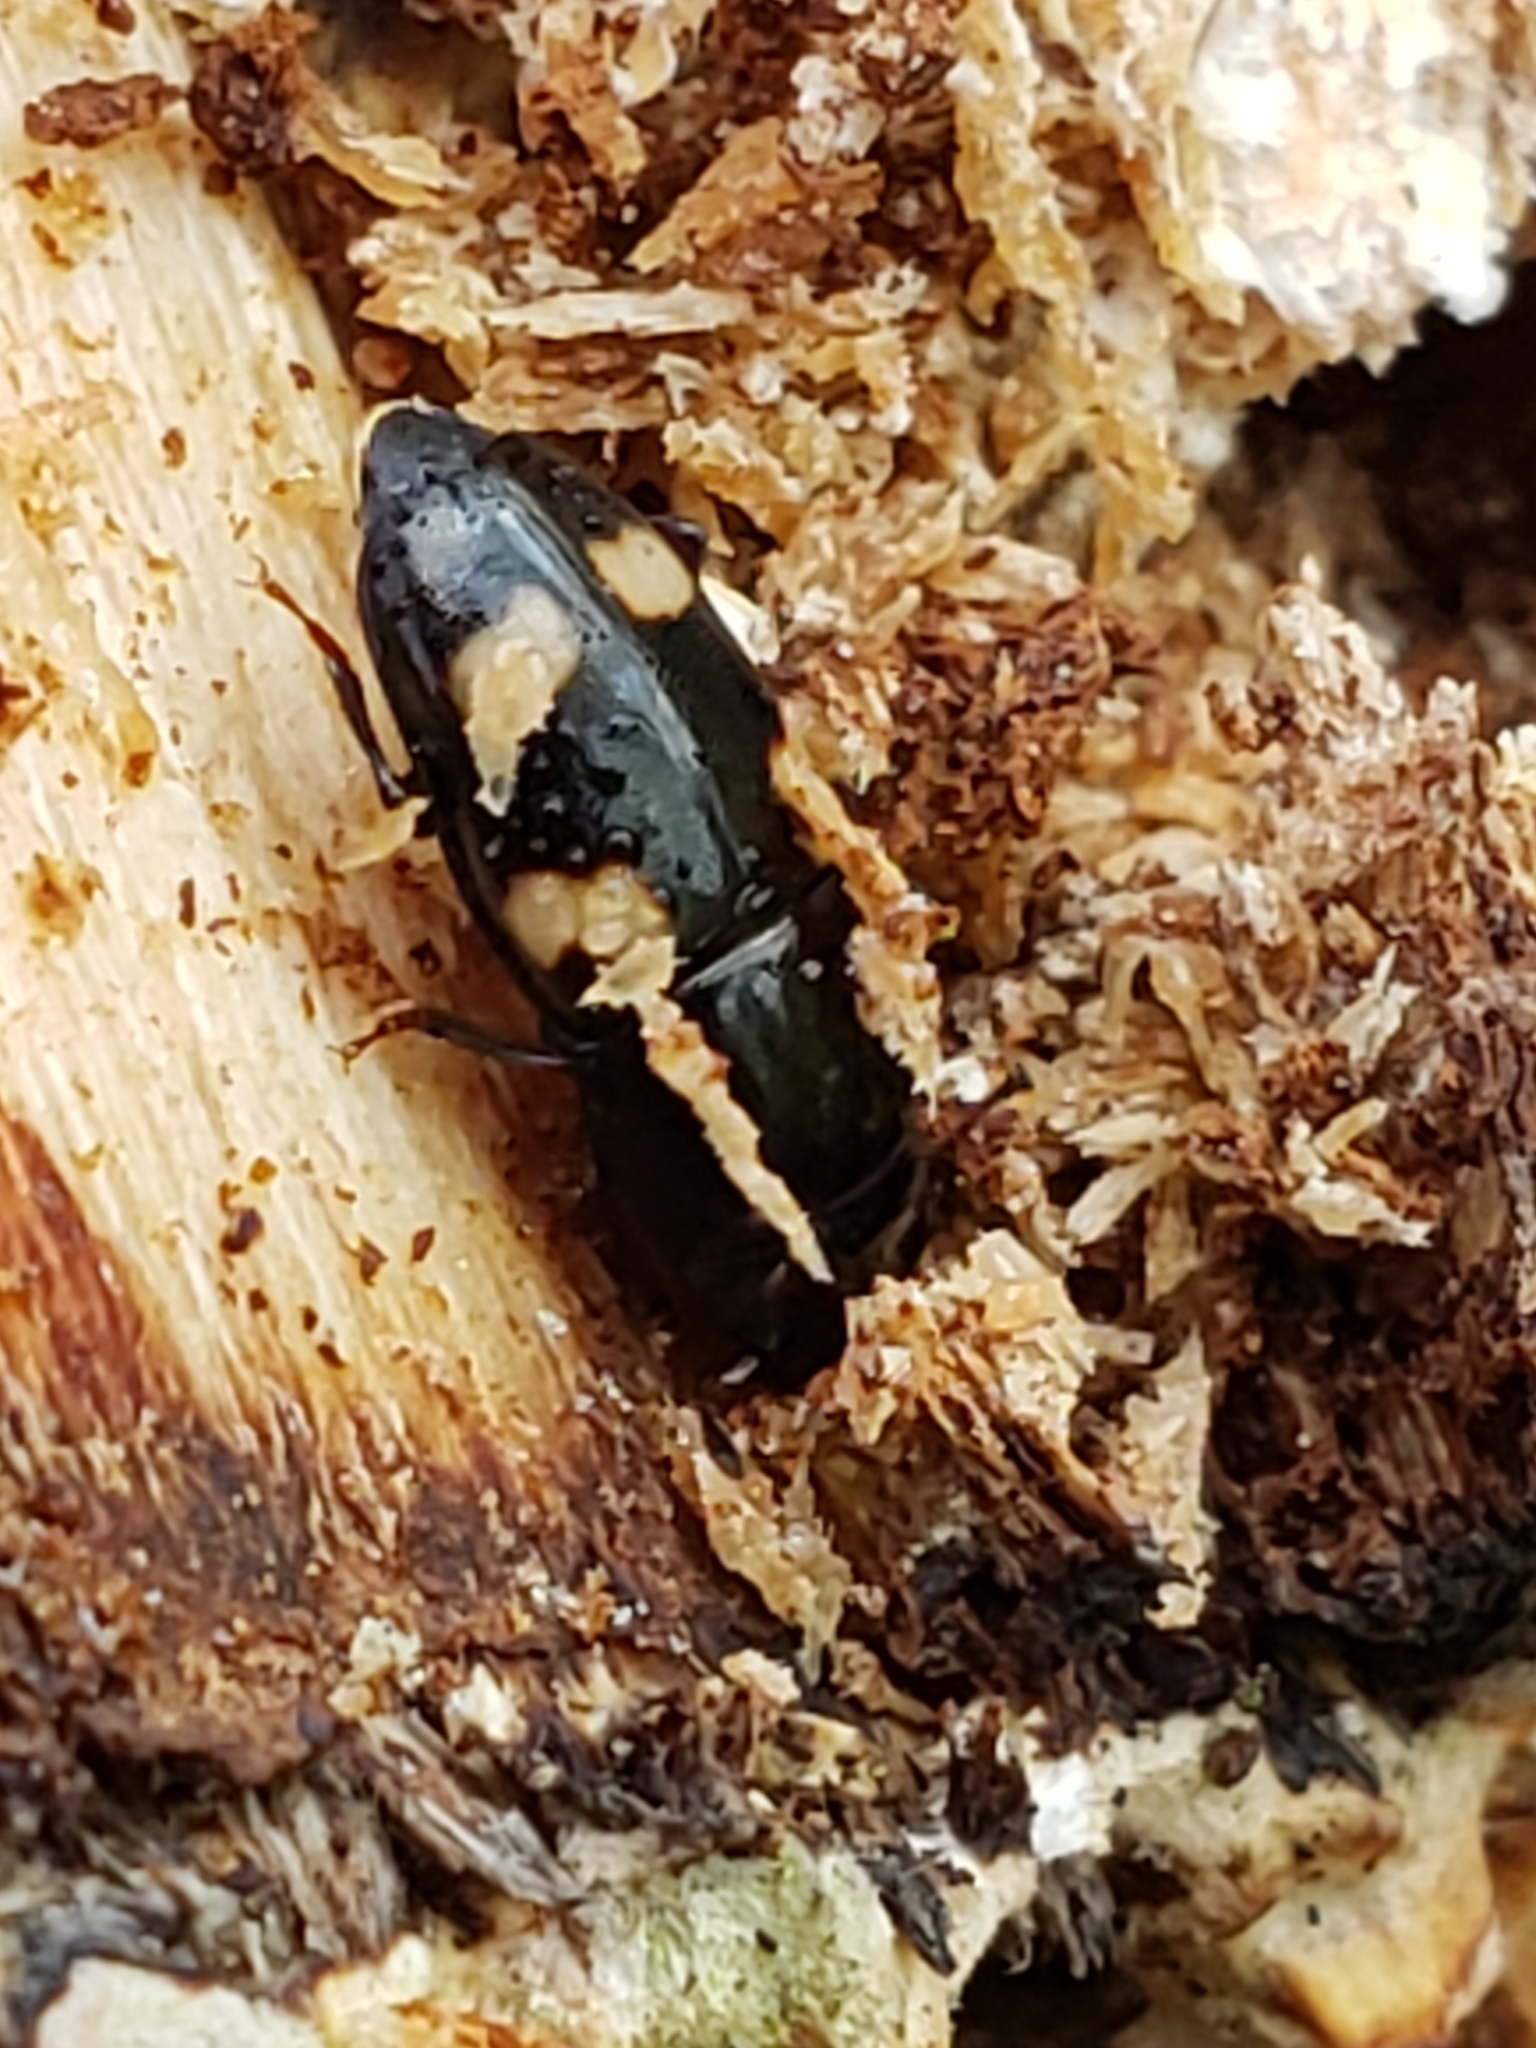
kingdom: Animalia
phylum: Arthropoda
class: Insecta
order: Coleoptera
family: Nitidulidae
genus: Glischrochilus
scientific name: Glischrochilus quadrisignatus
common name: Picnic beetle
